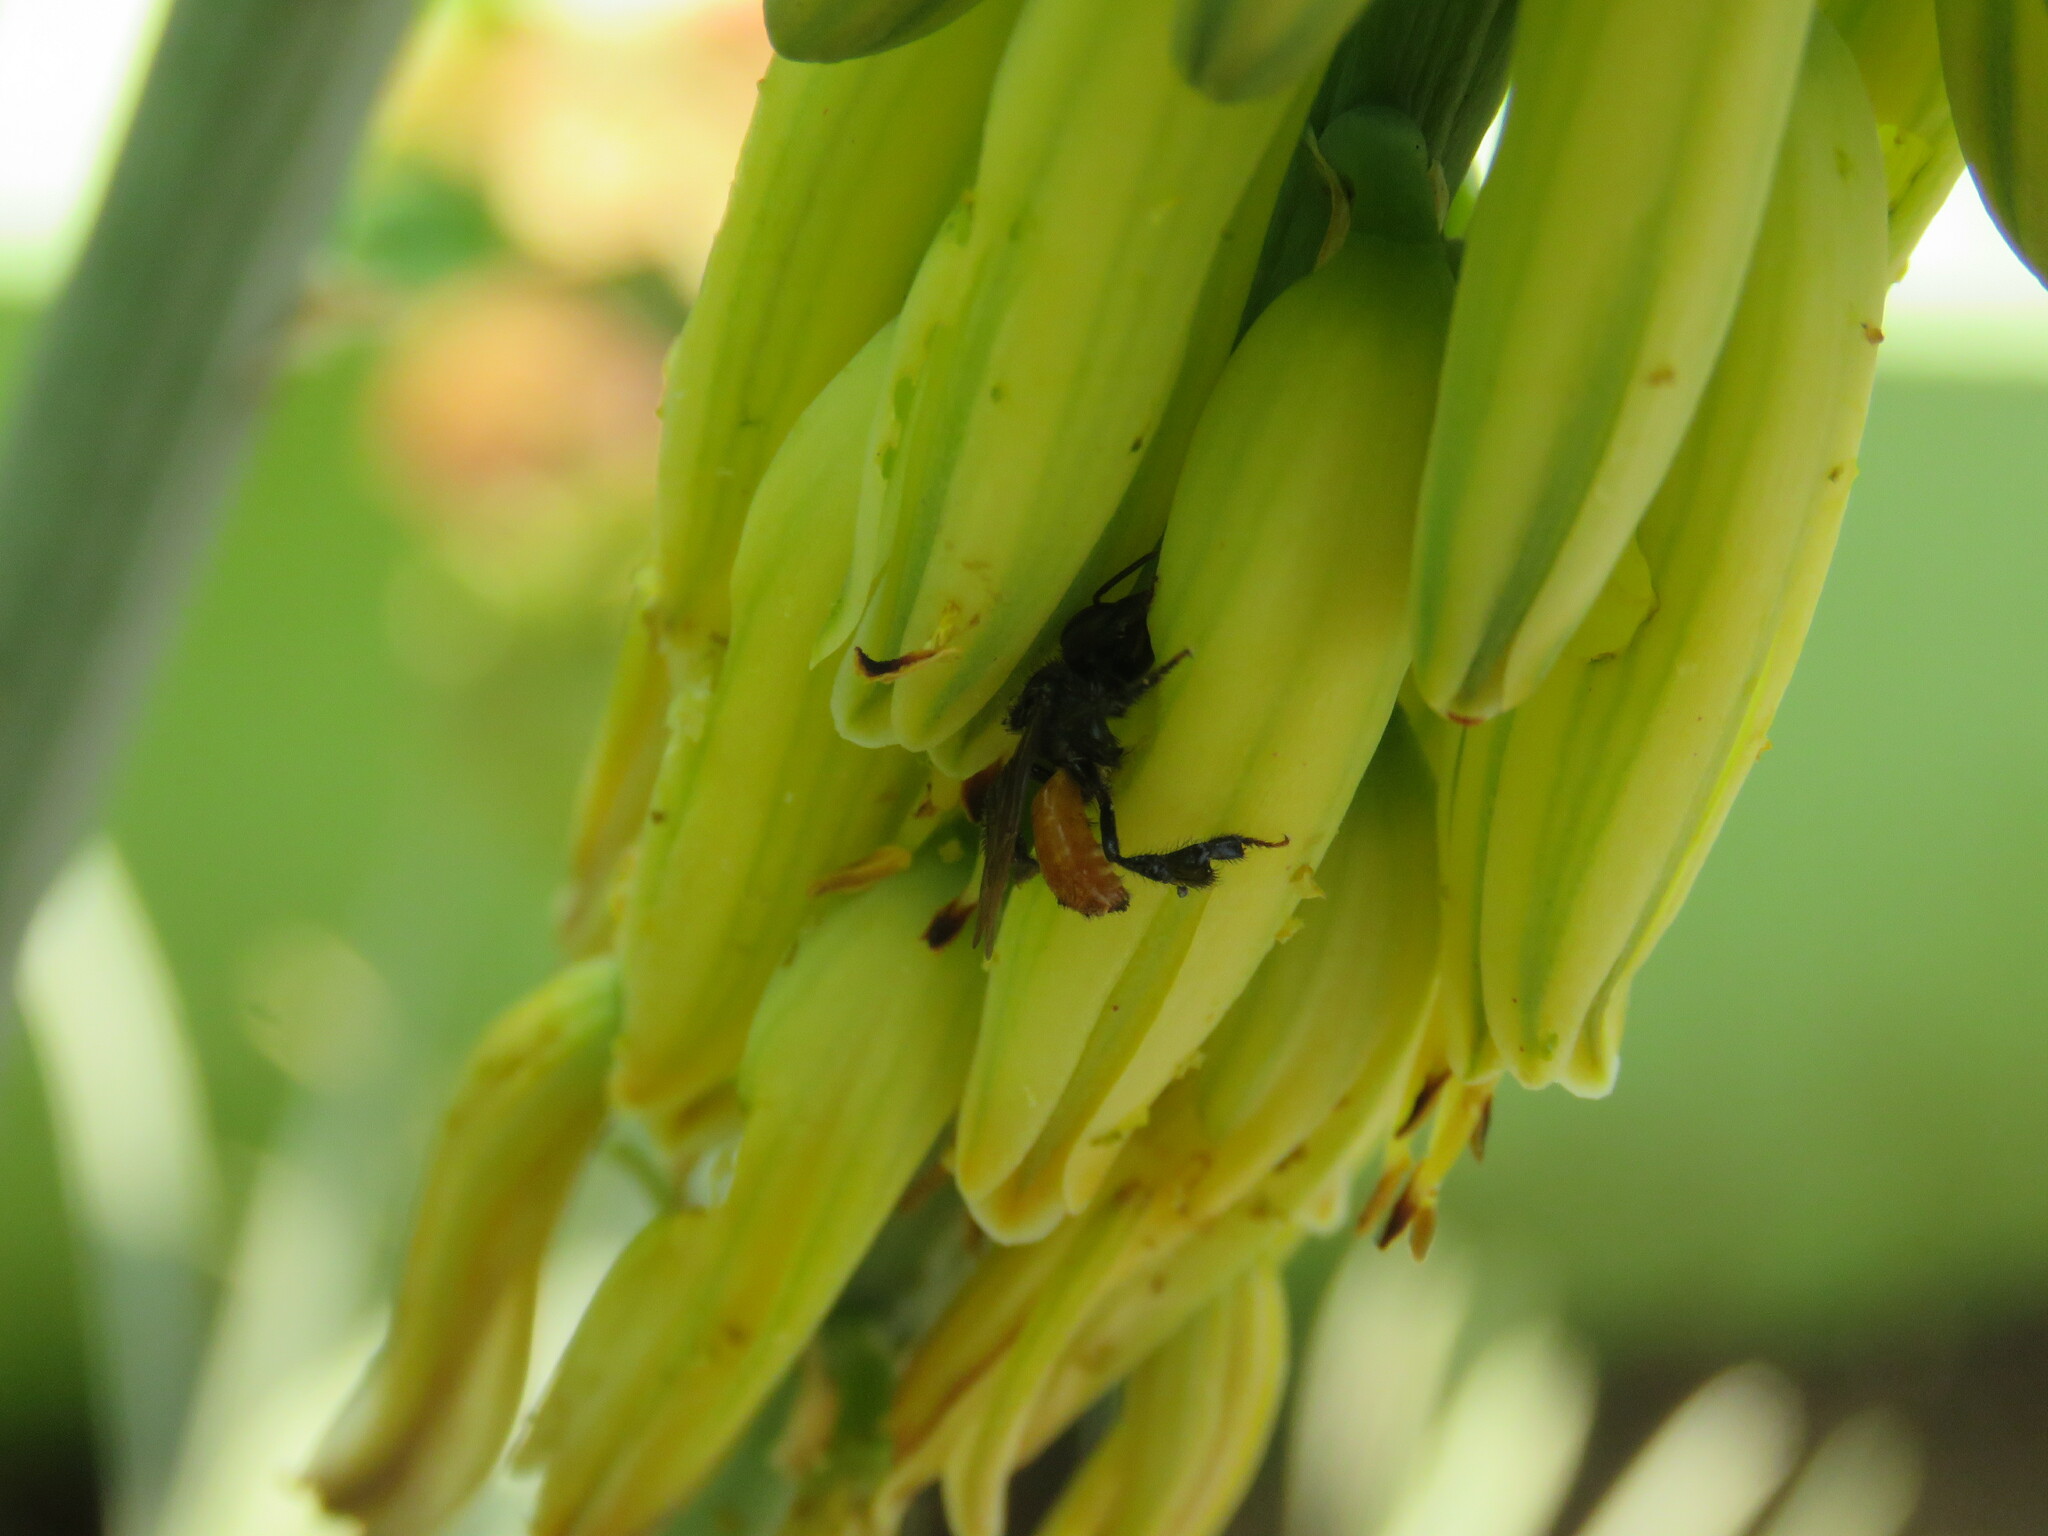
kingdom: Animalia
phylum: Arthropoda
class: Insecta
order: Hymenoptera
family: Apidae
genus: Trigona
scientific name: Trigona fulviventris
